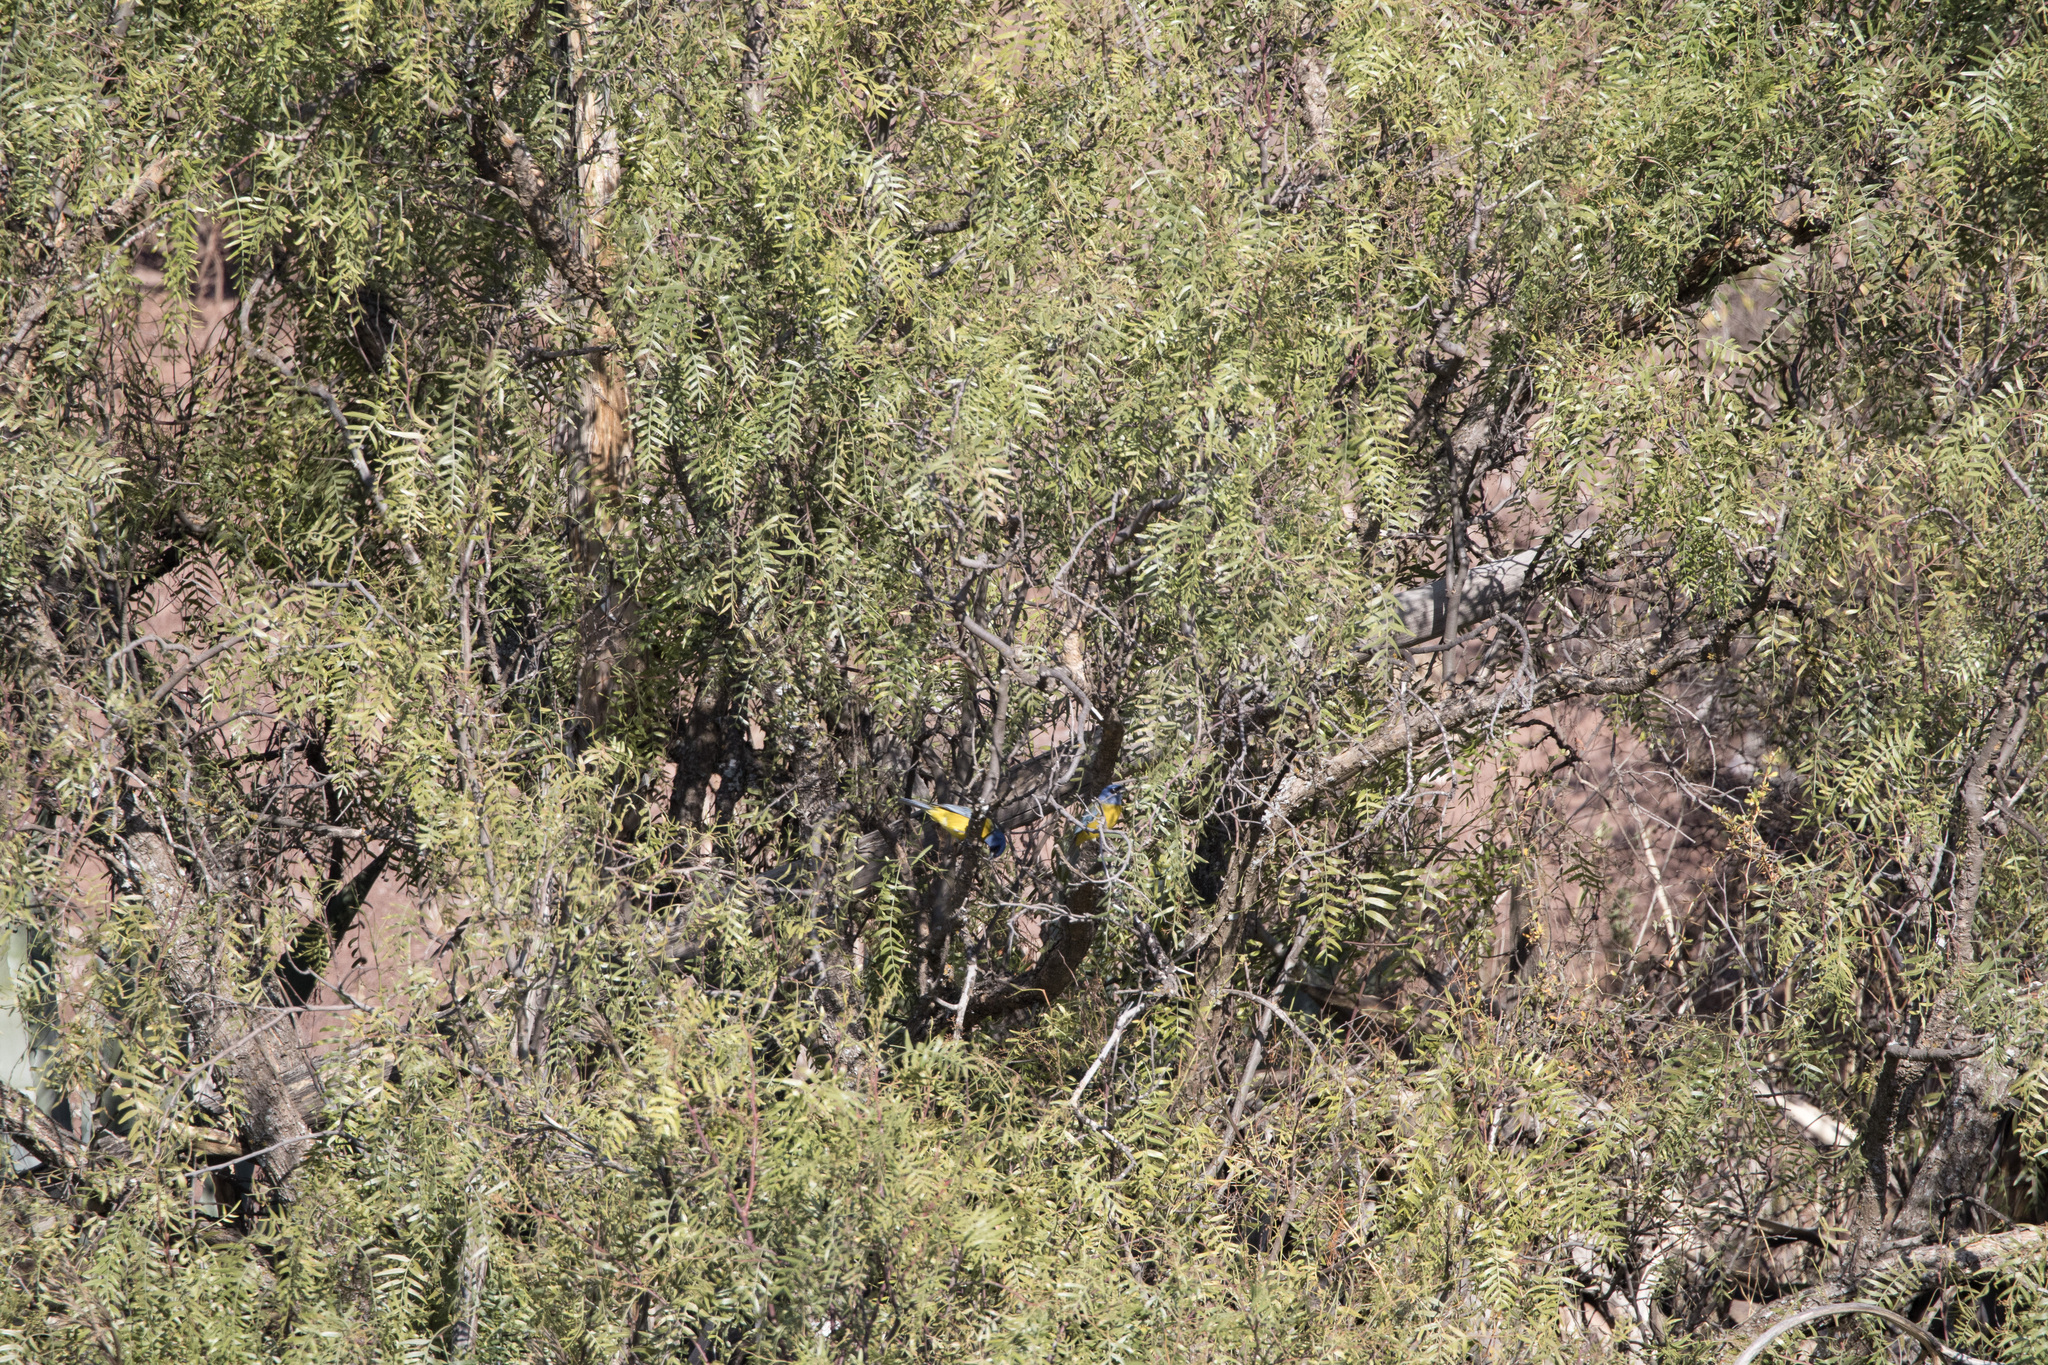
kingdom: Animalia
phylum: Chordata
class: Aves
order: Passeriformes
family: Thraupidae
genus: Rauenia
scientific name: Rauenia bonariensis
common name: Blue-and-yellow tanager
